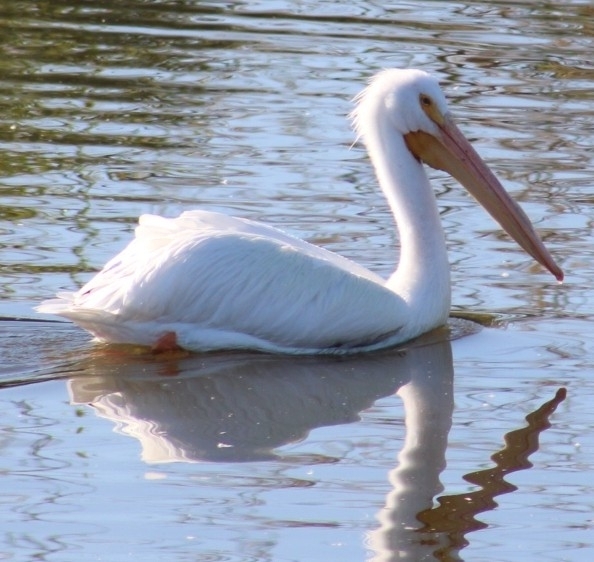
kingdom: Animalia
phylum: Chordata
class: Aves
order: Pelecaniformes
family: Pelecanidae
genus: Pelecanus
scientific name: Pelecanus erythrorhynchos
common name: American white pelican
